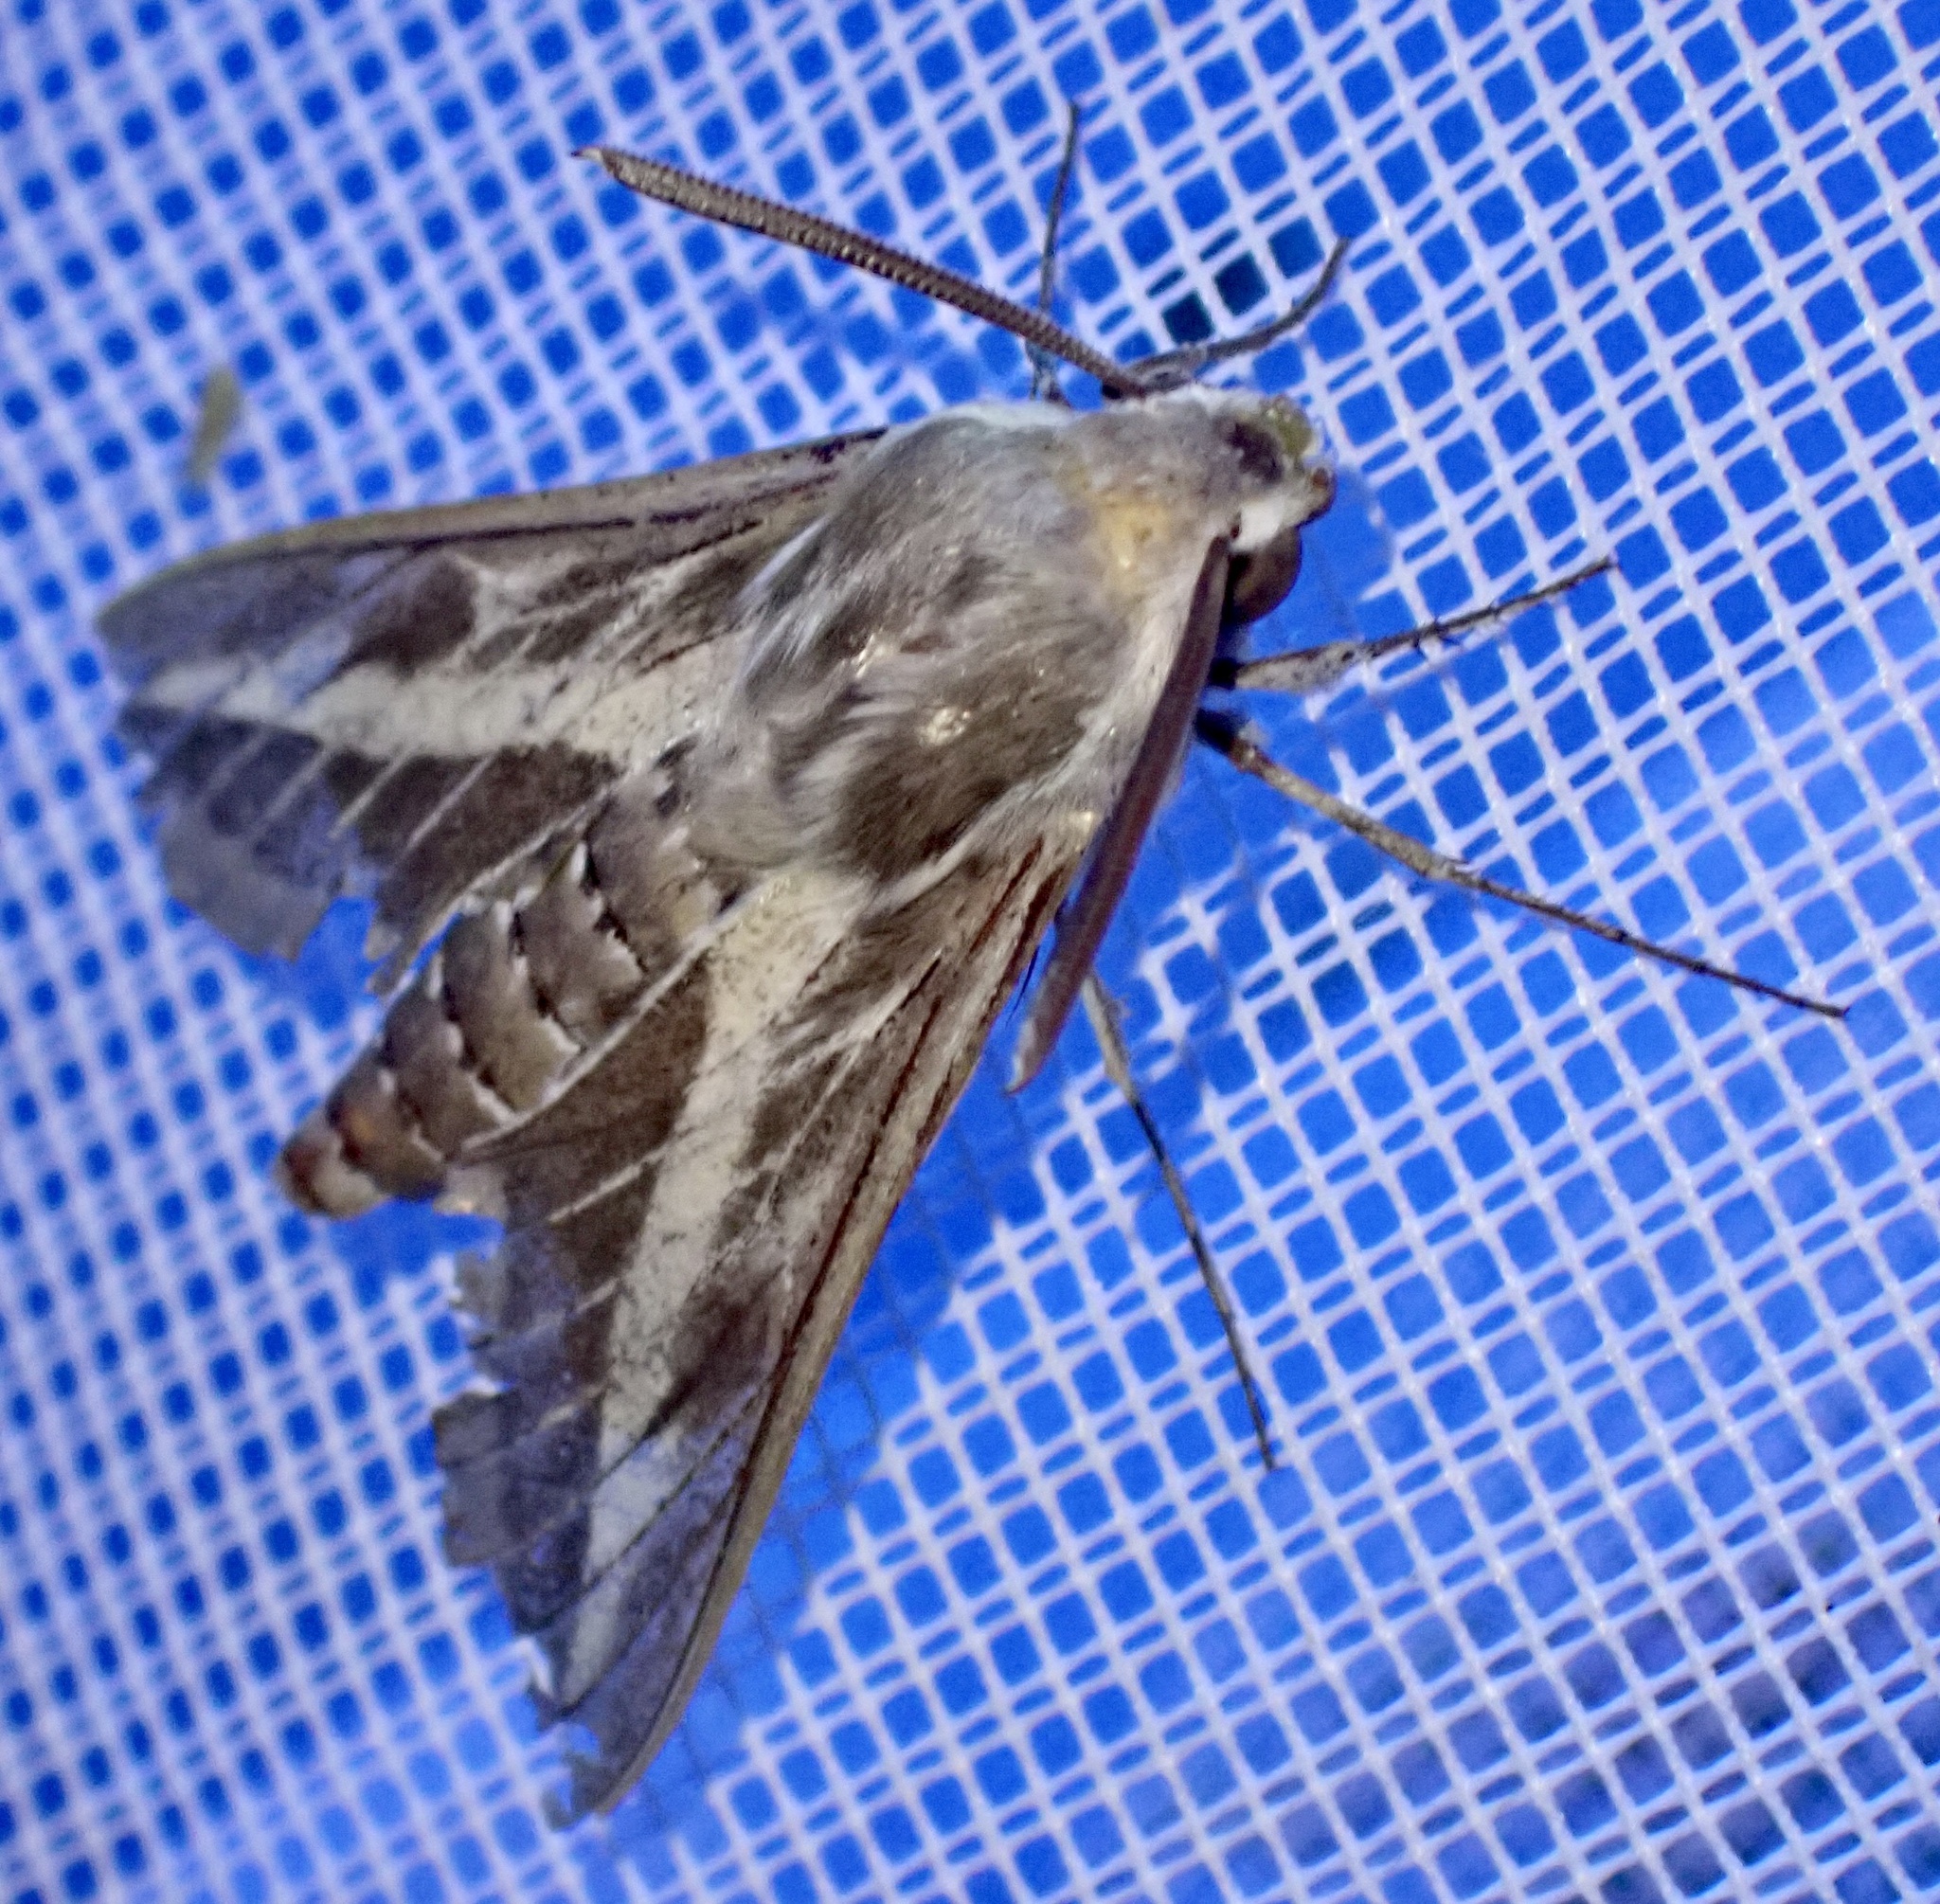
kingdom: Animalia
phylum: Arthropoda
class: Insecta
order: Lepidoptera
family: Sphingidae
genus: Hyles
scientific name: Hyles livornica
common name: Striped hawk-moth
